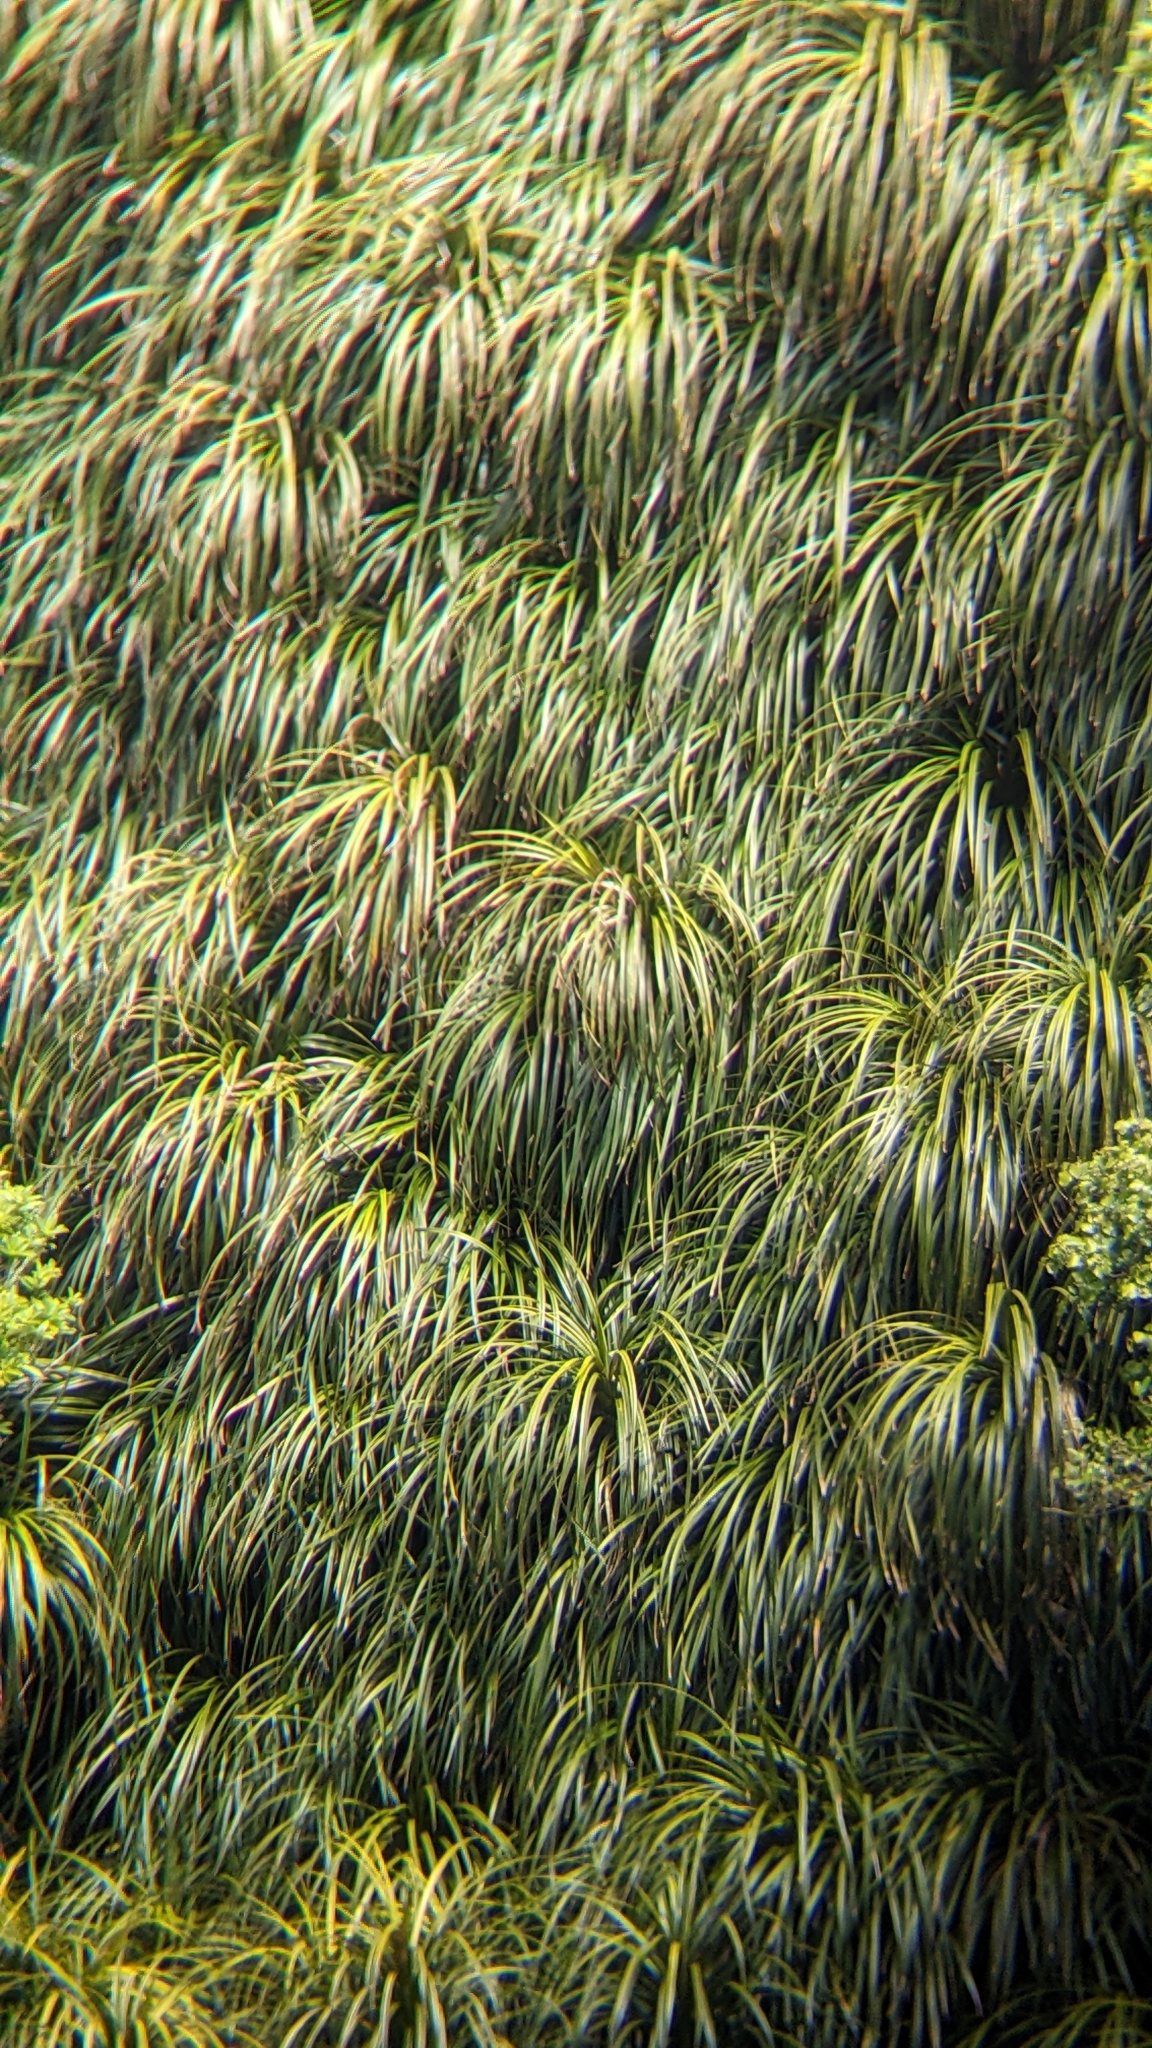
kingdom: Plantae
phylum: Tracheophyta
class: Liliopsida
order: Pandanales
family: Pandanaceae
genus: Freycinetia
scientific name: Freycinetia banksii
